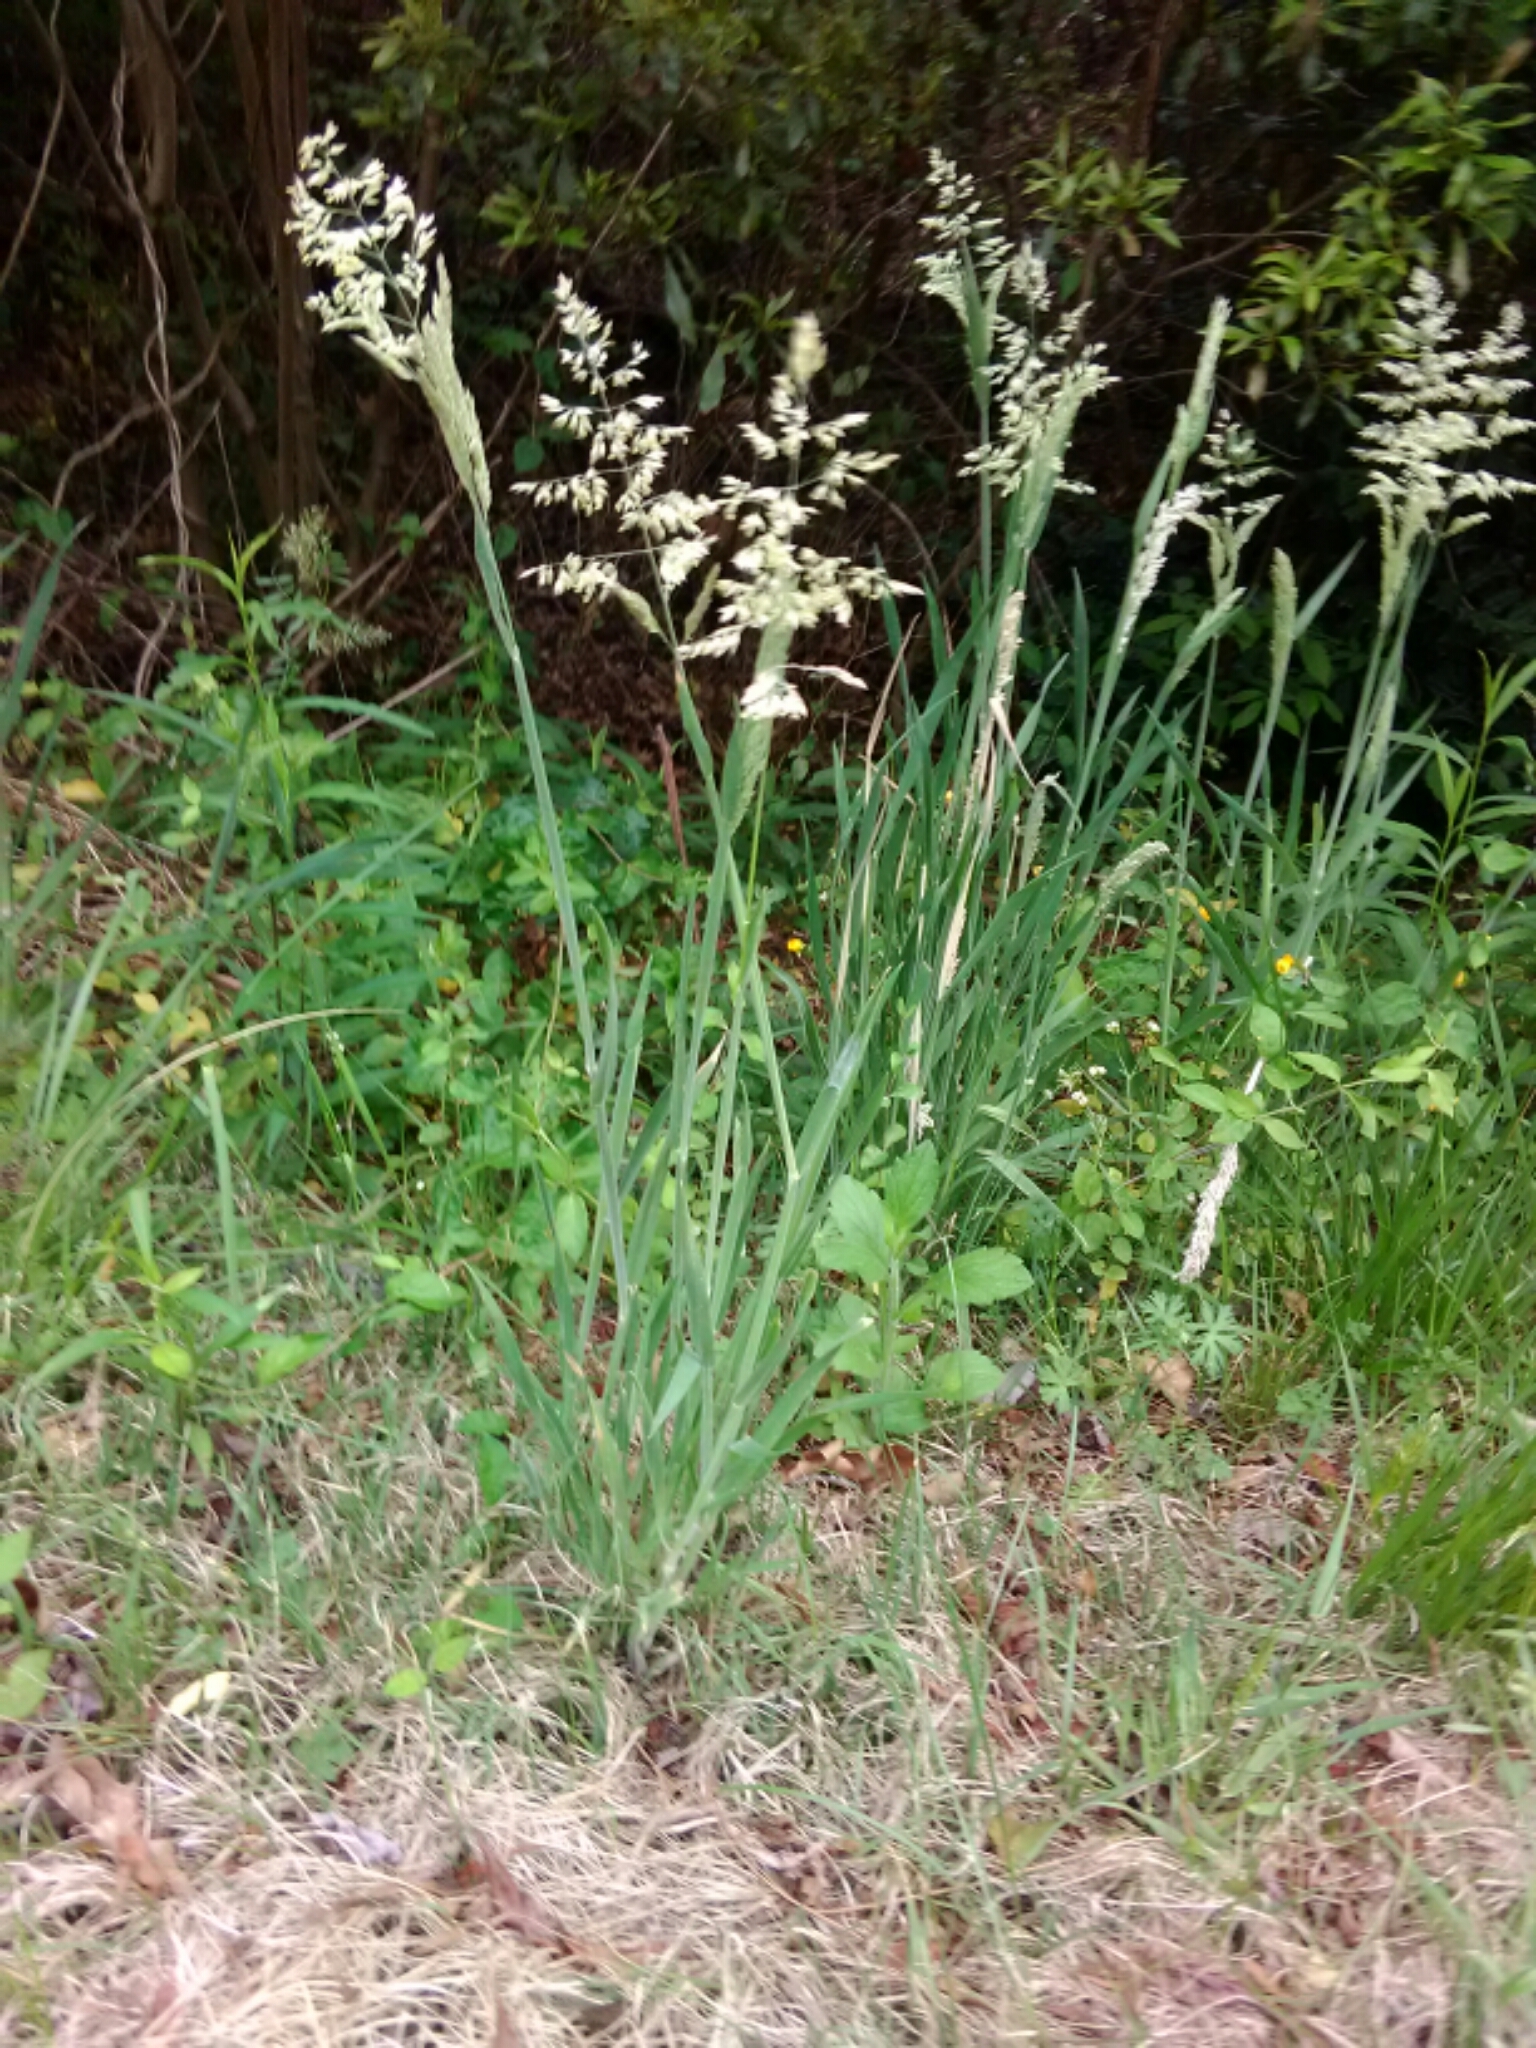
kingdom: Plantae
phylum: Tracheophyta
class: Liliopsida
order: Poales
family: Poaceae
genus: Holcus
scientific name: Holcus lanatus
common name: Yorkshire-fog
